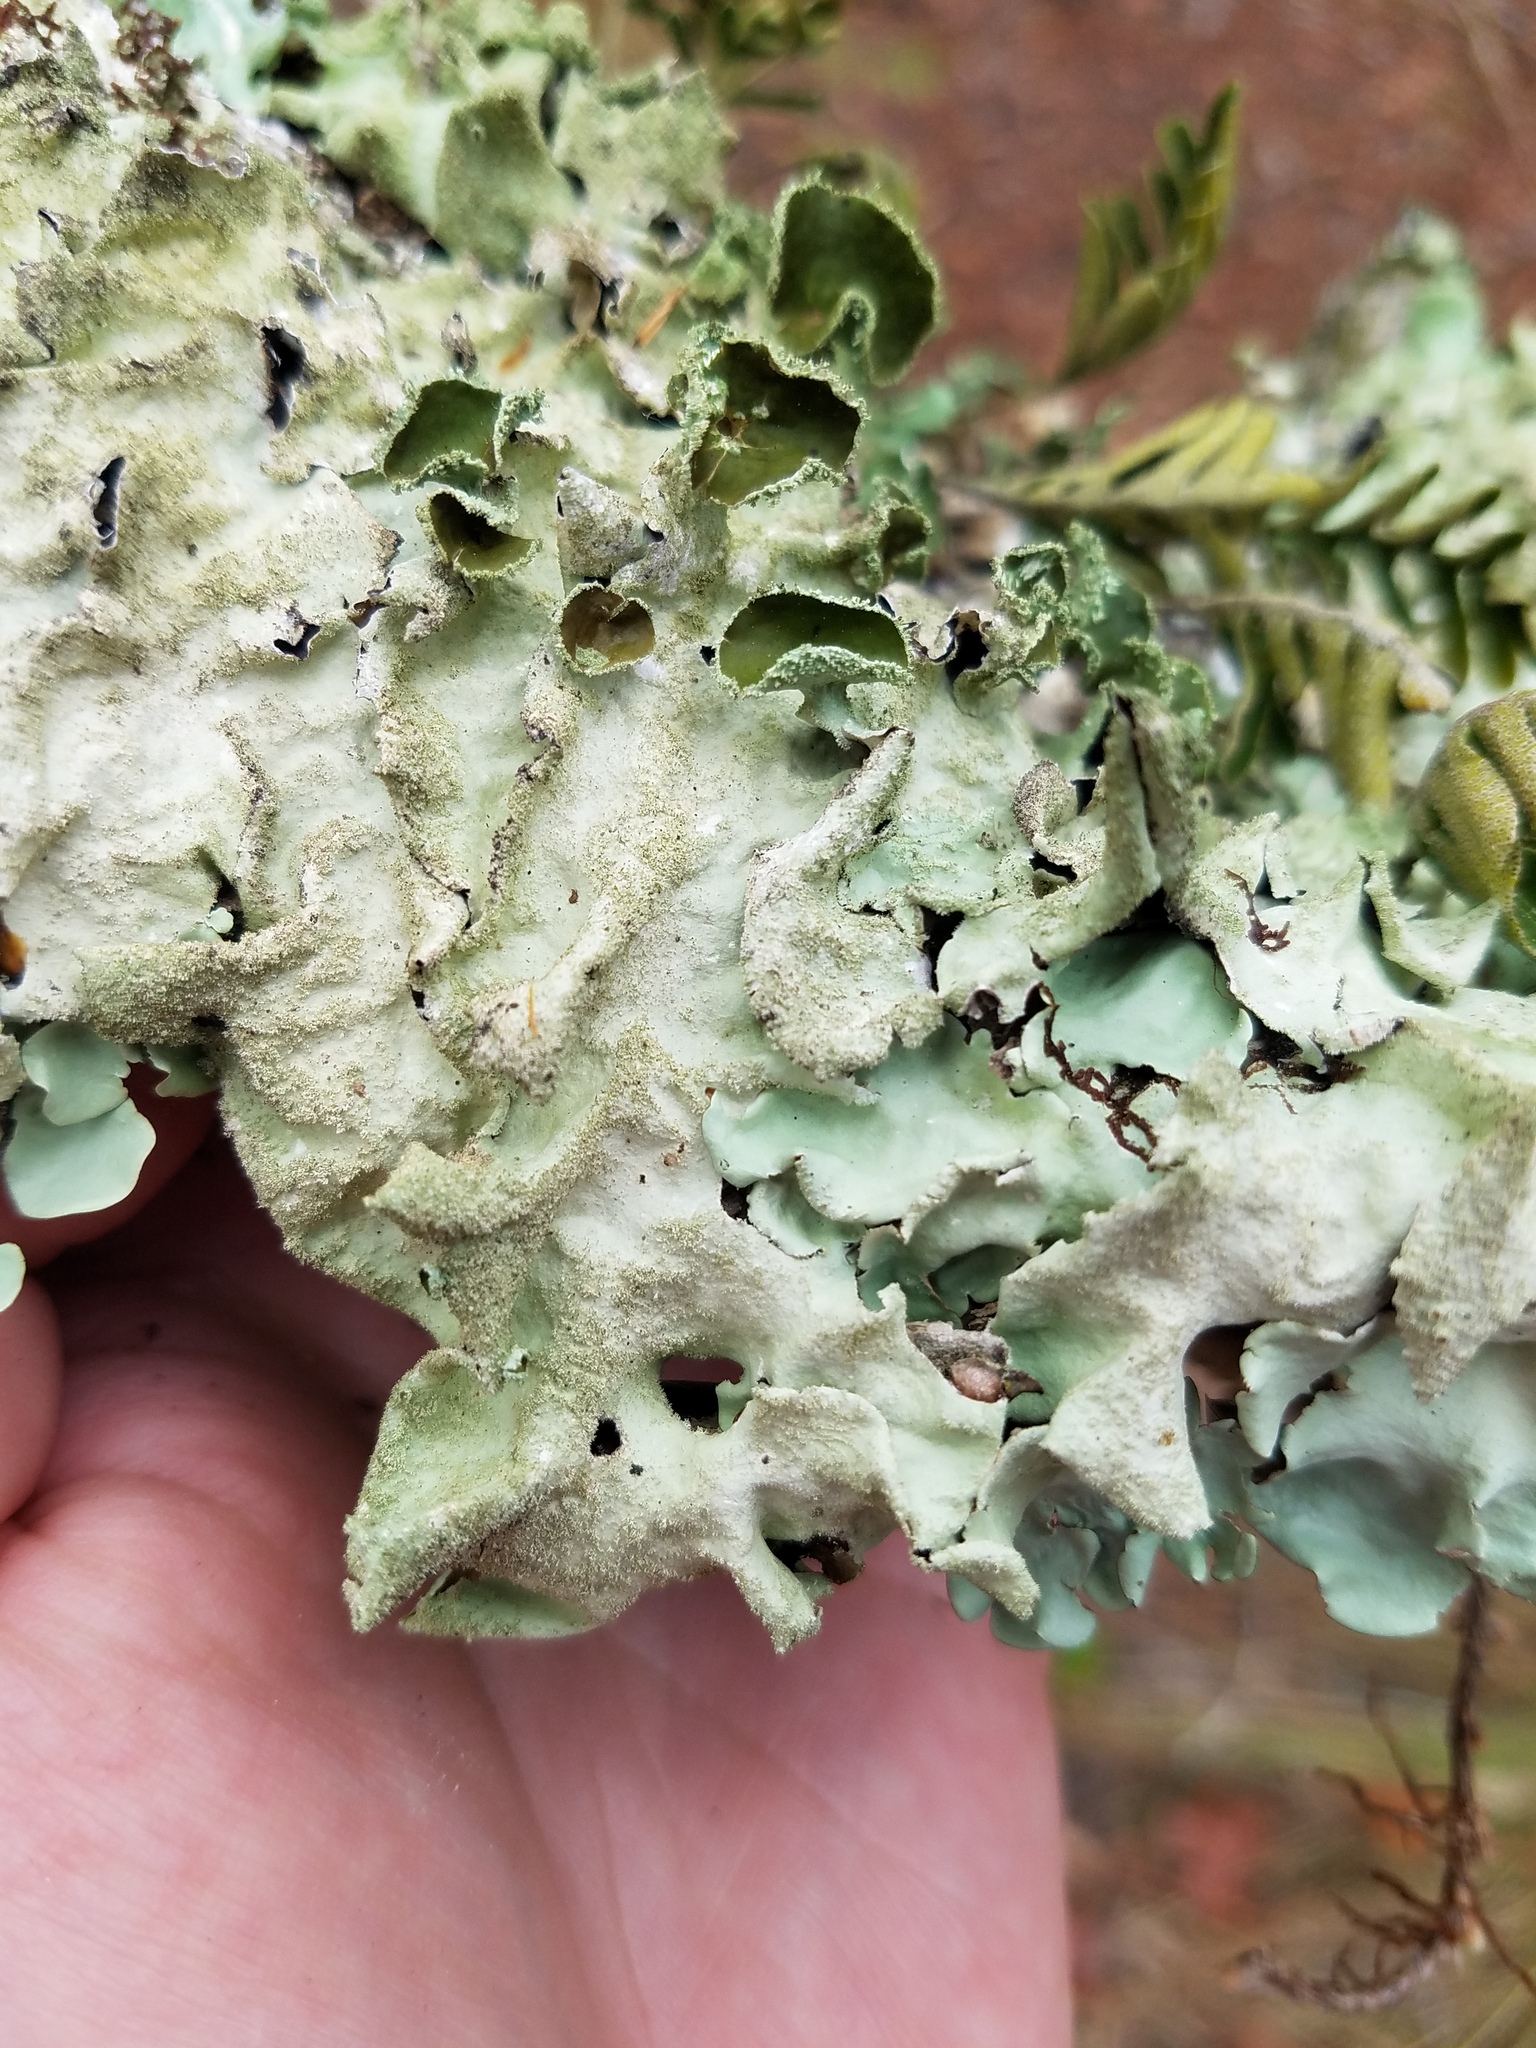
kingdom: Fungi
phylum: Ascomycota
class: Lecanoromycetes
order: Lecanorales
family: Parmeliaceae
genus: Parmotrema
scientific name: Parmotrema tinctorum
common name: Old gray ruffles
